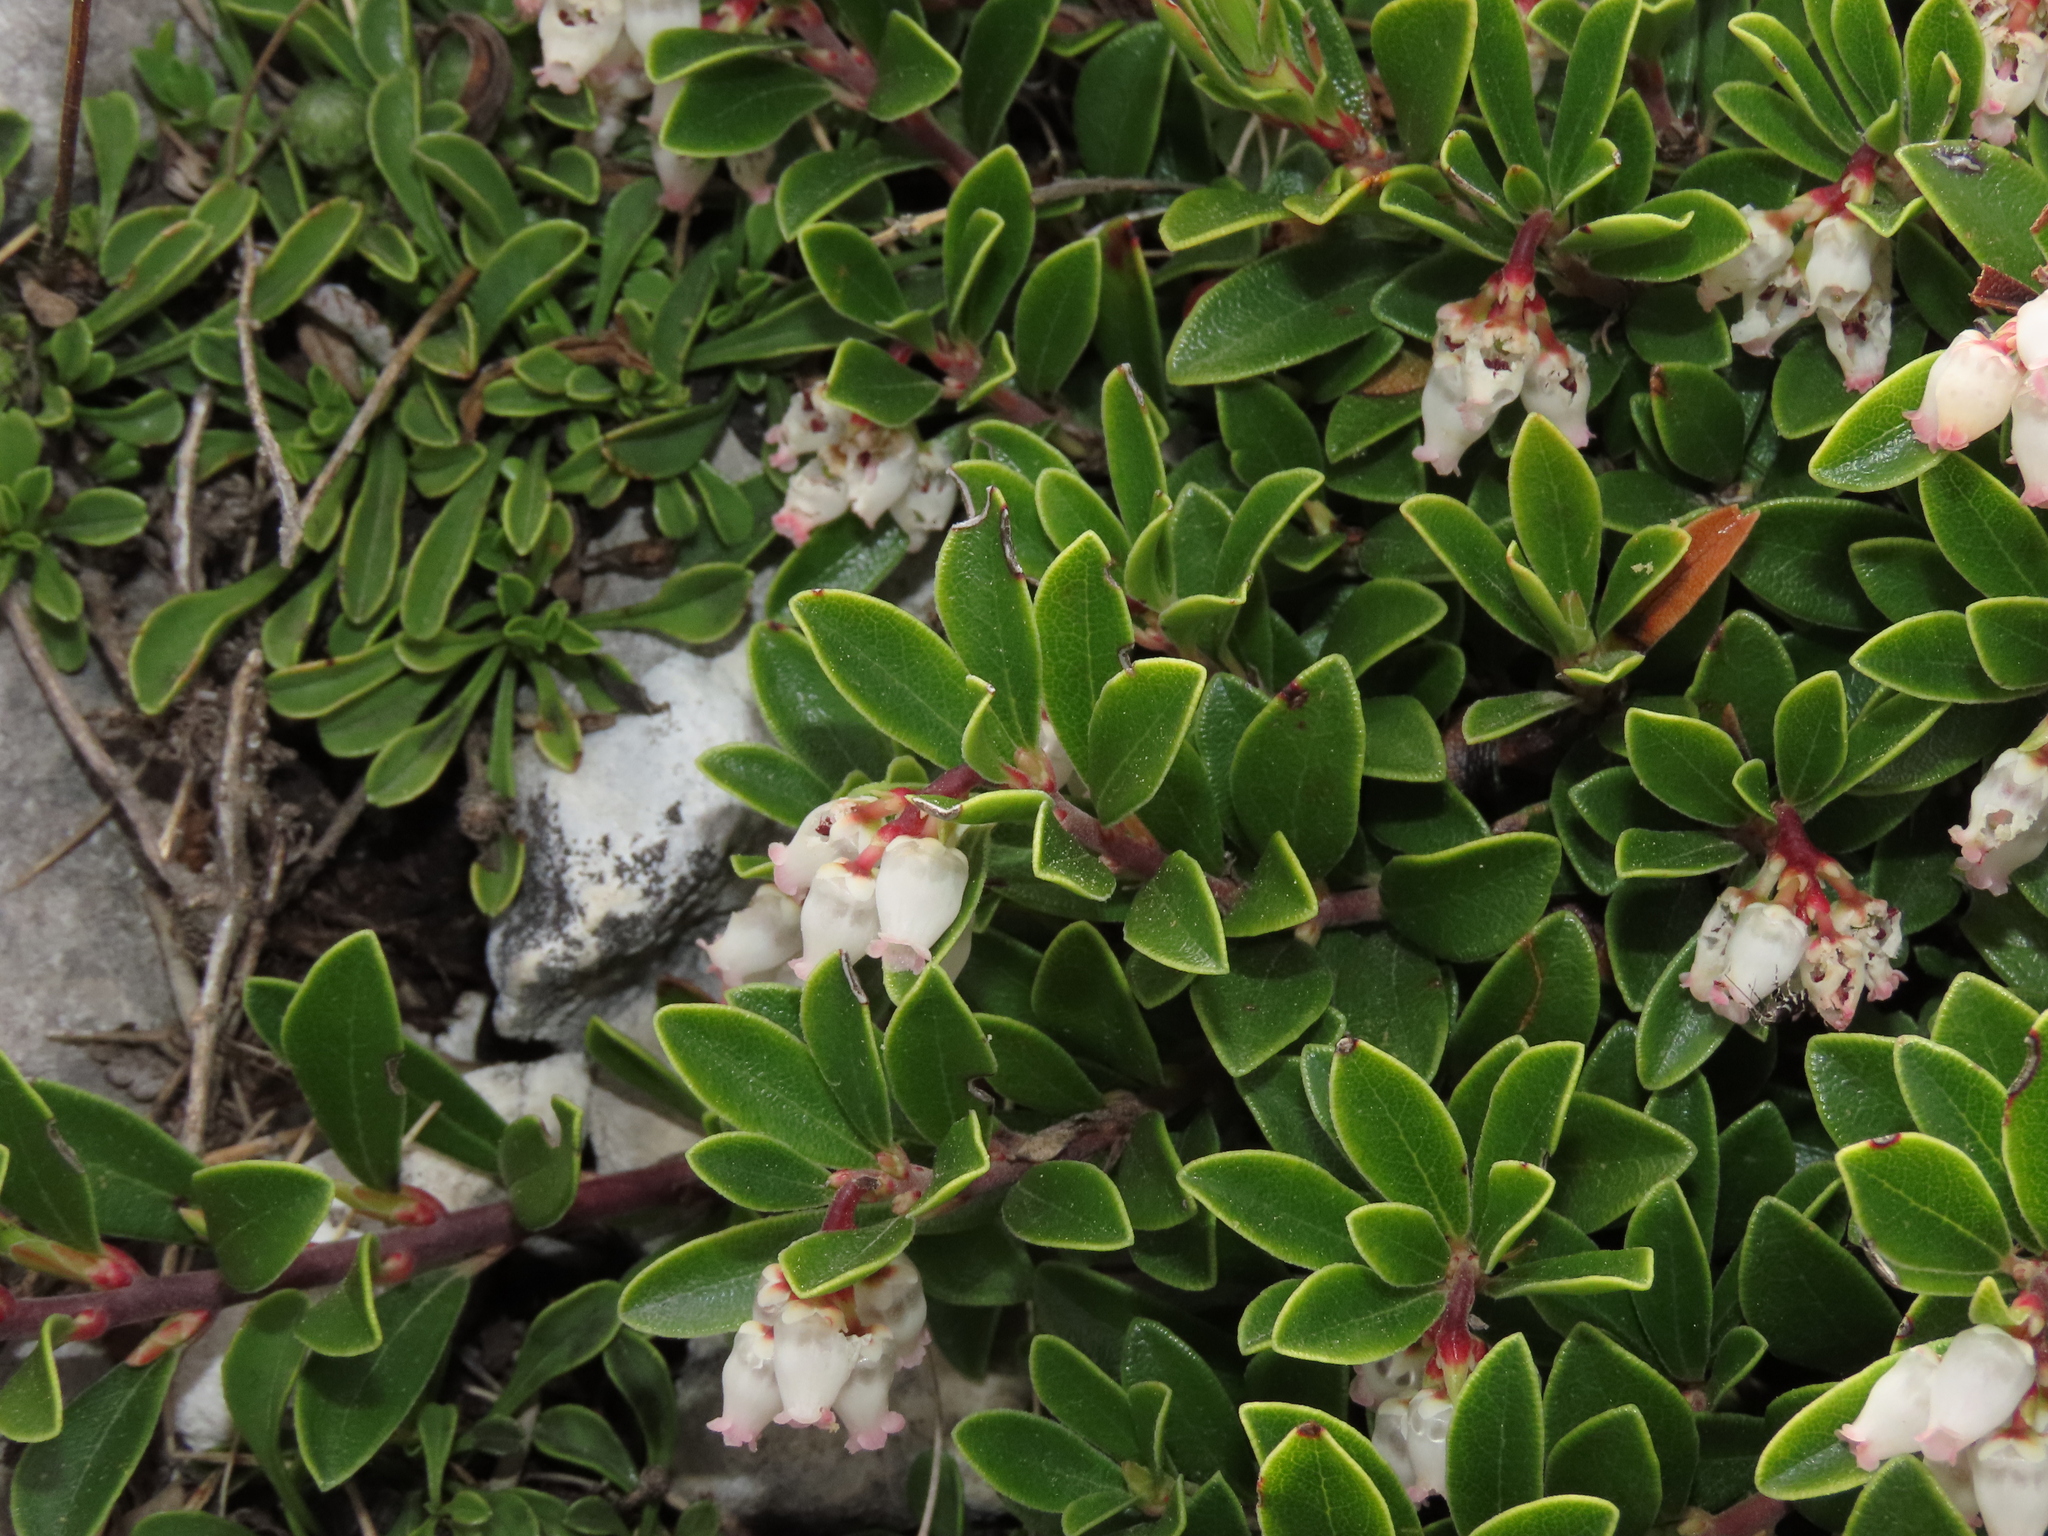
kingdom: Plantae
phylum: Tracheophyta
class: Magnoliopsida
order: Ericales
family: Ericaceae
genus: Arctostaphylos
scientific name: Arctostaphylos uva-ursi
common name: Bearberry
